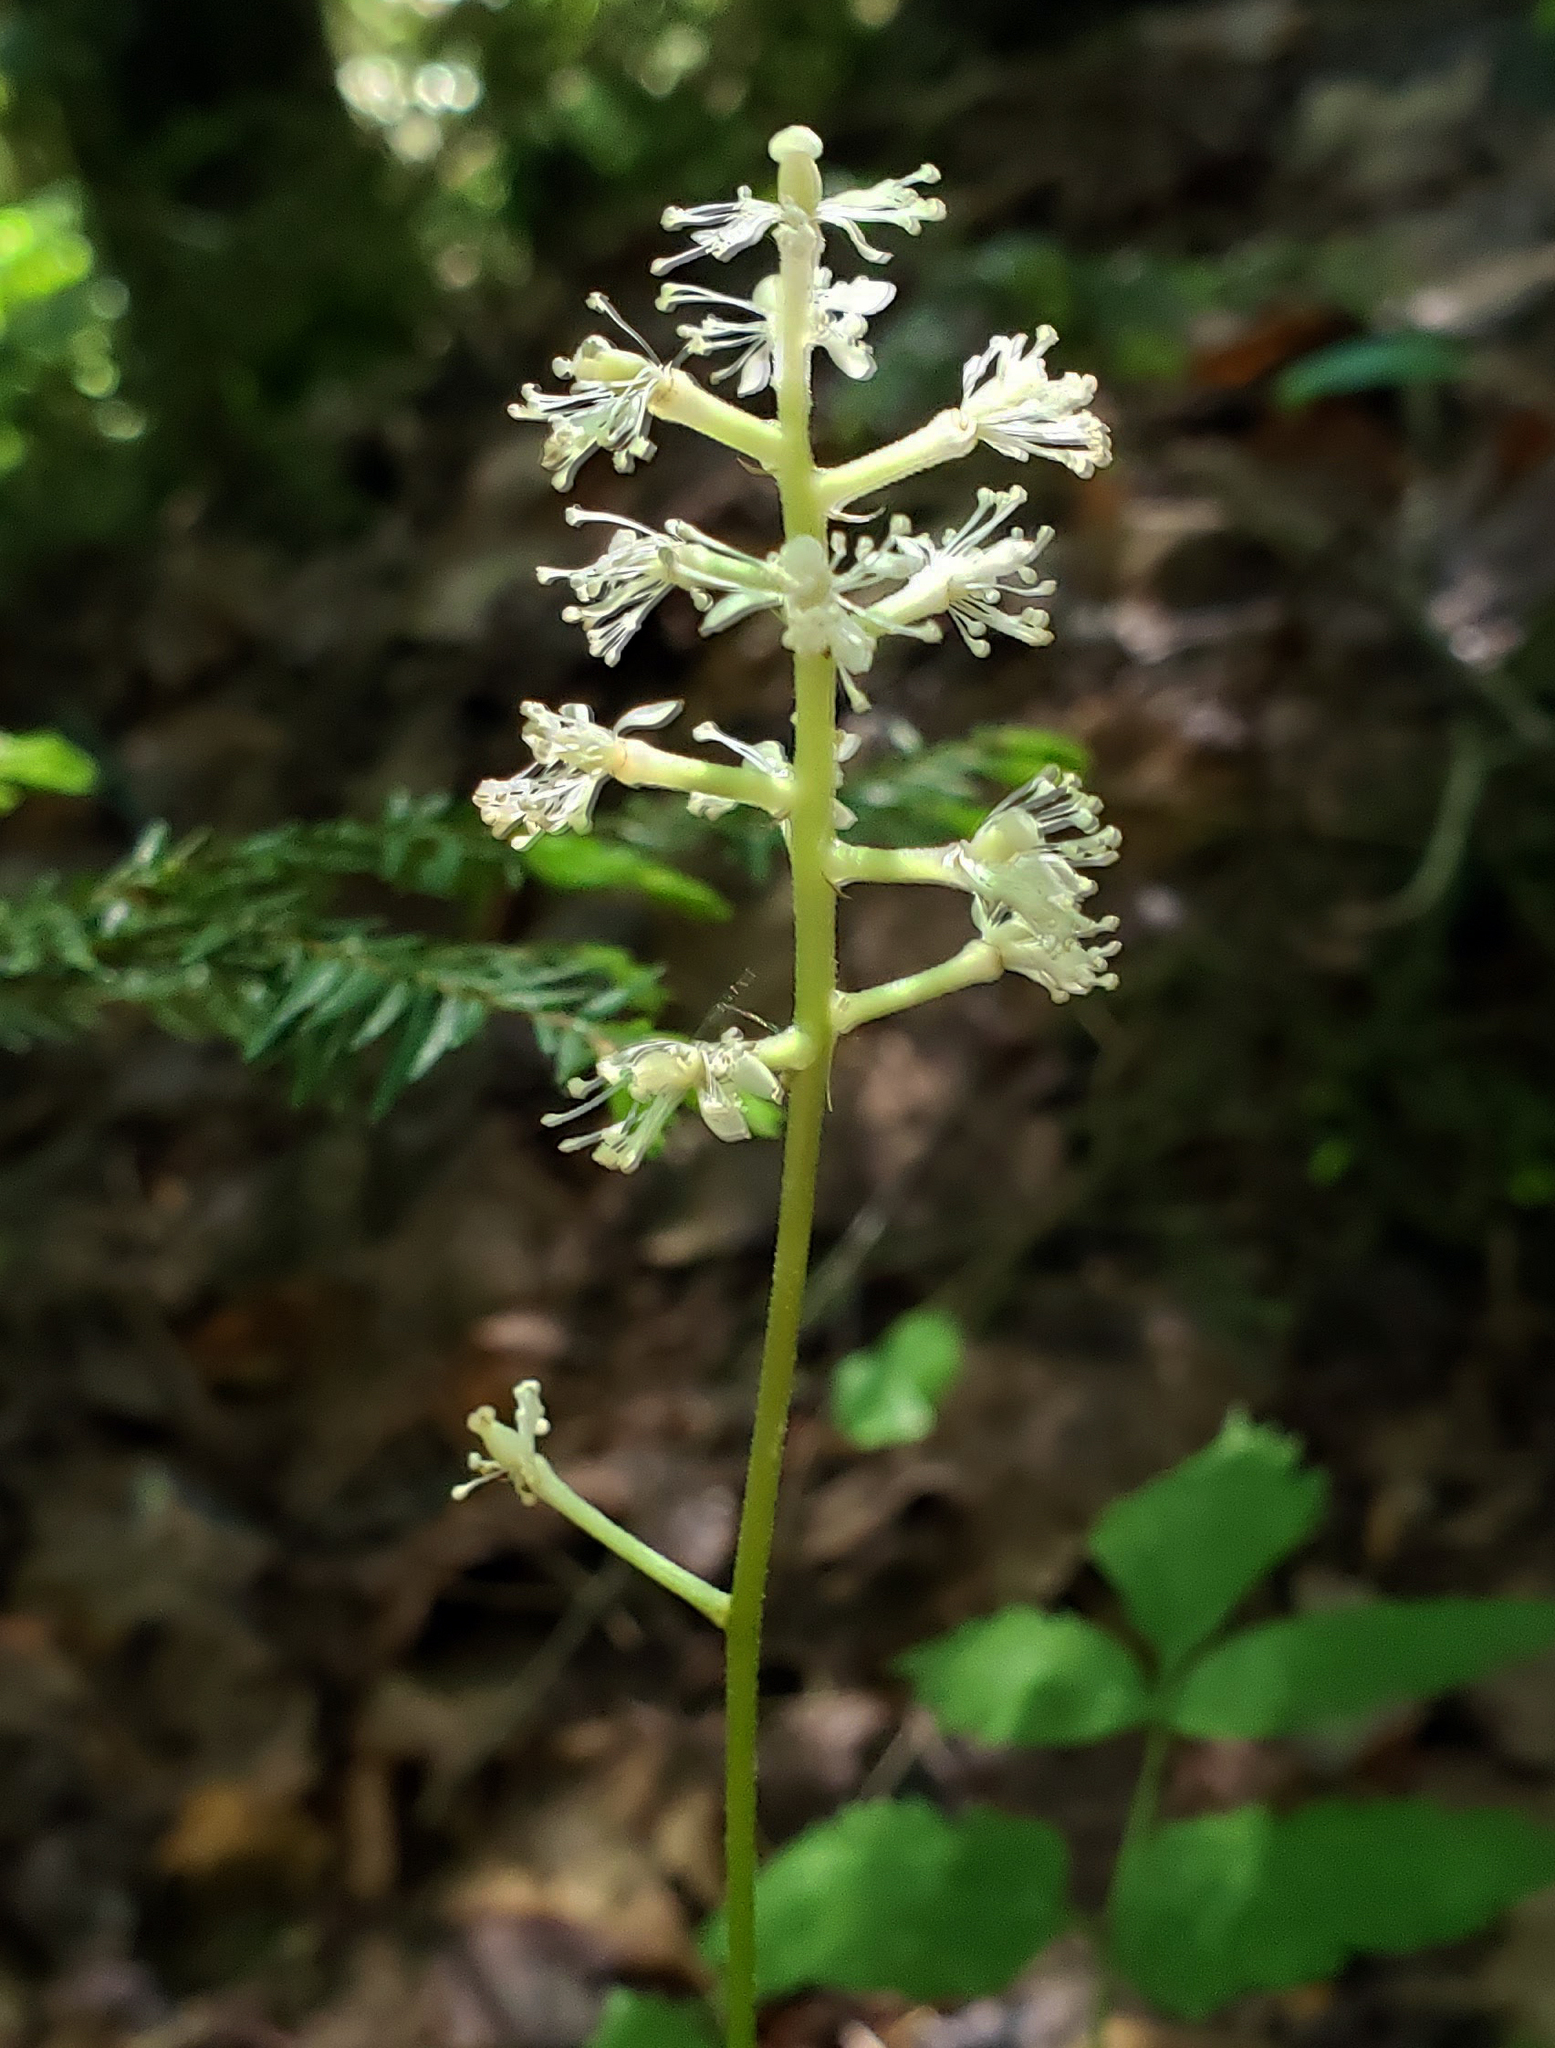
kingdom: Plantae
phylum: Tracheophyta
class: Magnoliopsida
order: Ranunculales
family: Ranunculaceae
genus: Actaea
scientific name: Actaea pachypoda
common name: Doll's-eyes
